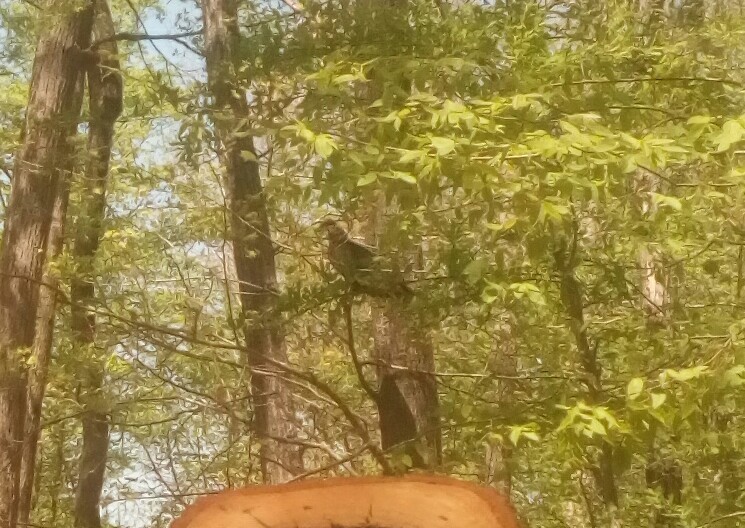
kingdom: Animalia
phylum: Chordata
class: Aves
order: Accipitriformes
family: Cathartidae
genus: Cathartes
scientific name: Cathartes aura
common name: Turkey vulture
